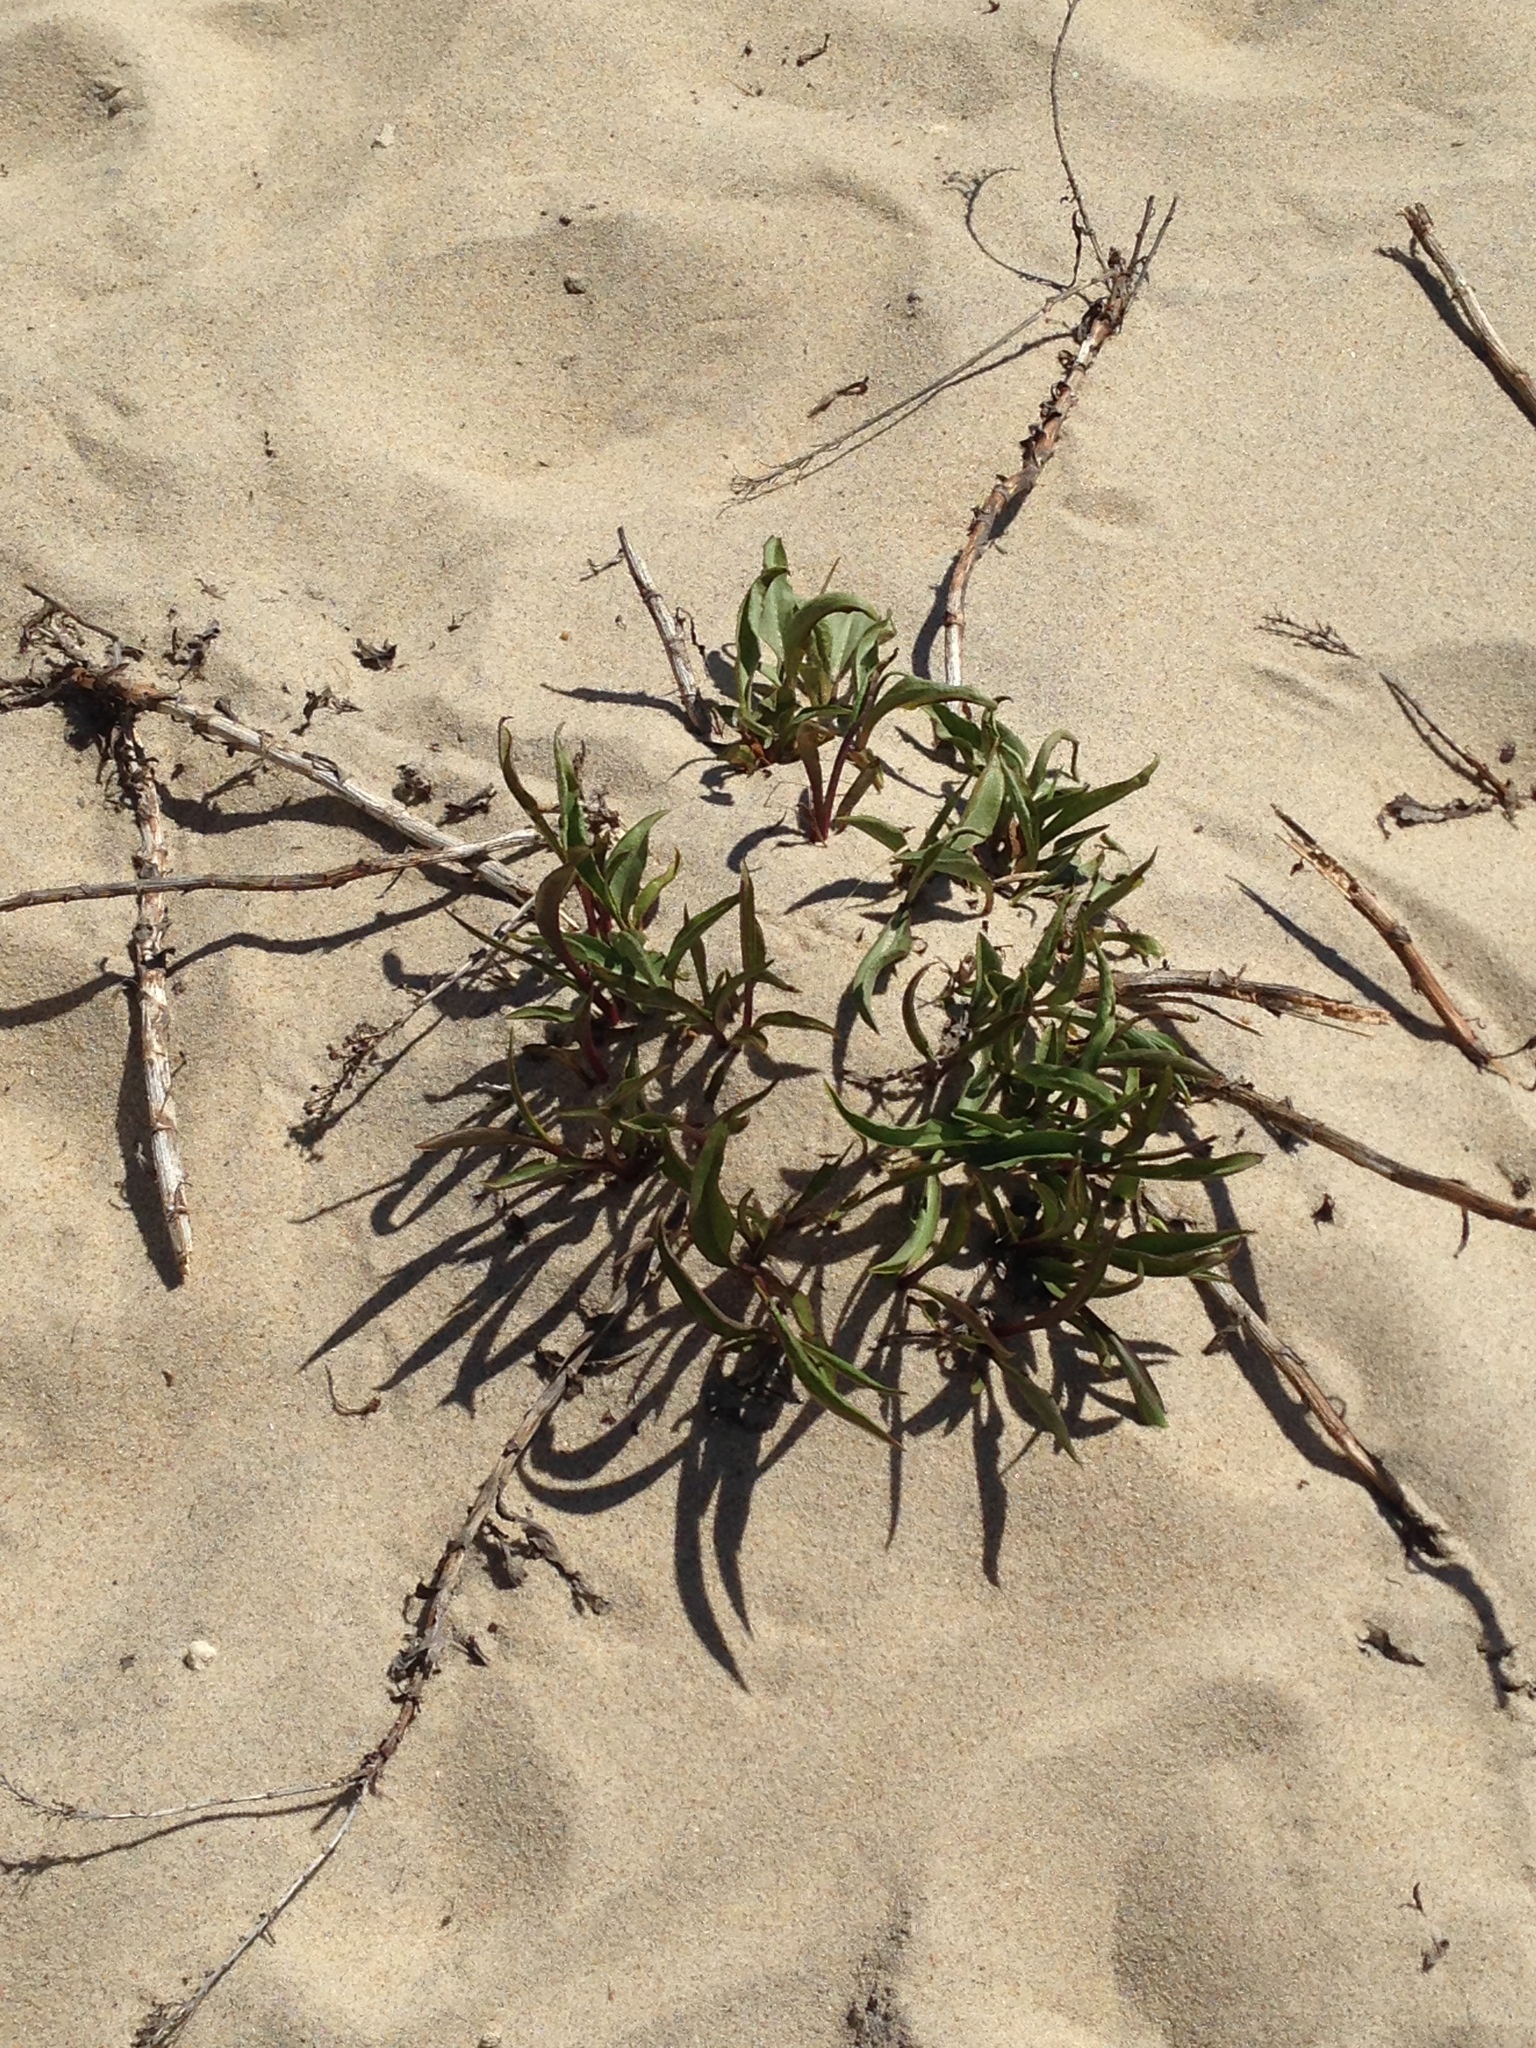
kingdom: Plantae
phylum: Tracheophyta
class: Magnoliopsida
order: Asterales
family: Asteraceae
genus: Solidago
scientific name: Solidago sempervirens
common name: Salt-marsh goldenrod
